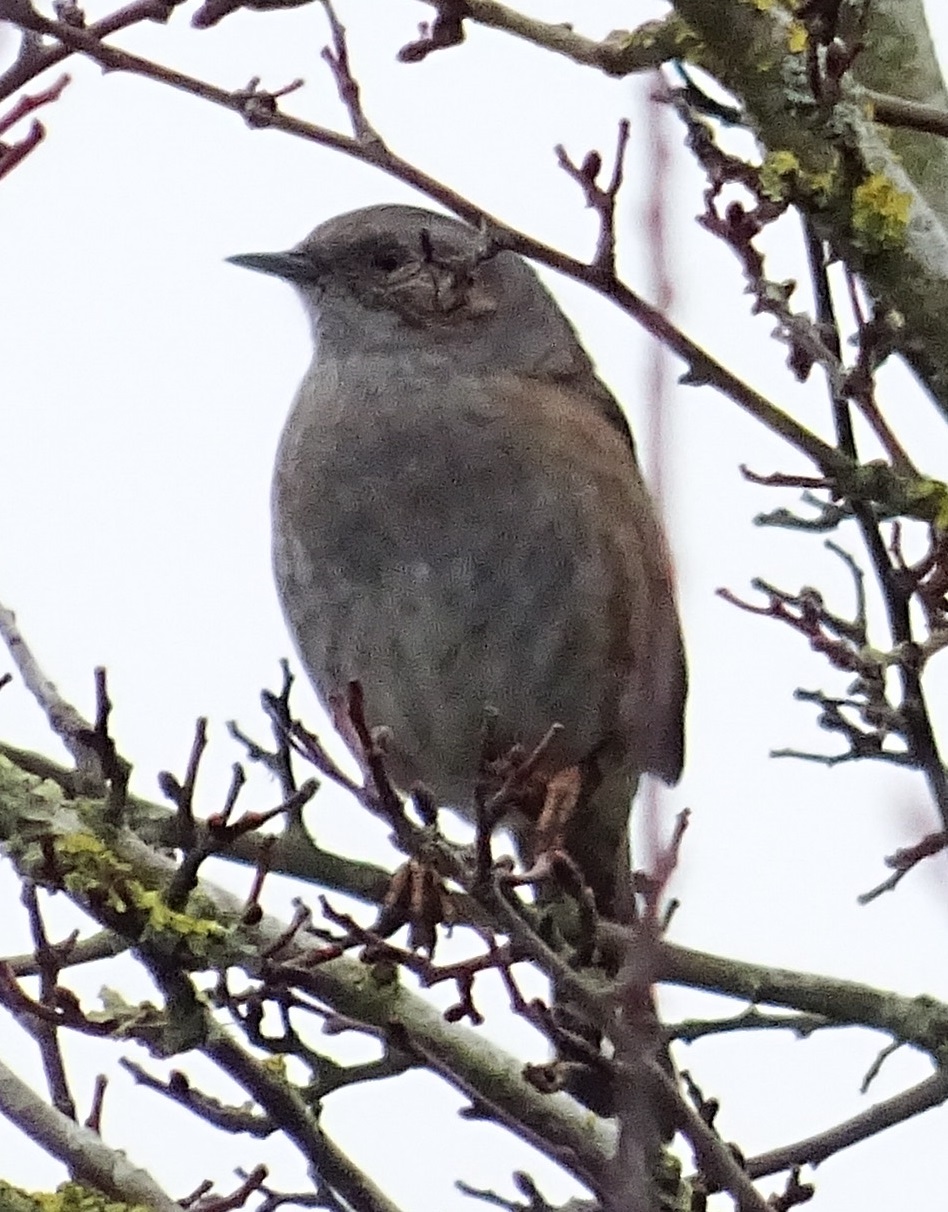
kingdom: Animalia
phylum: Chordata
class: Aves
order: Passeriformes
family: Prunellidae
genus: Prunella
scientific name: Prunella modularis
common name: Dunnock
